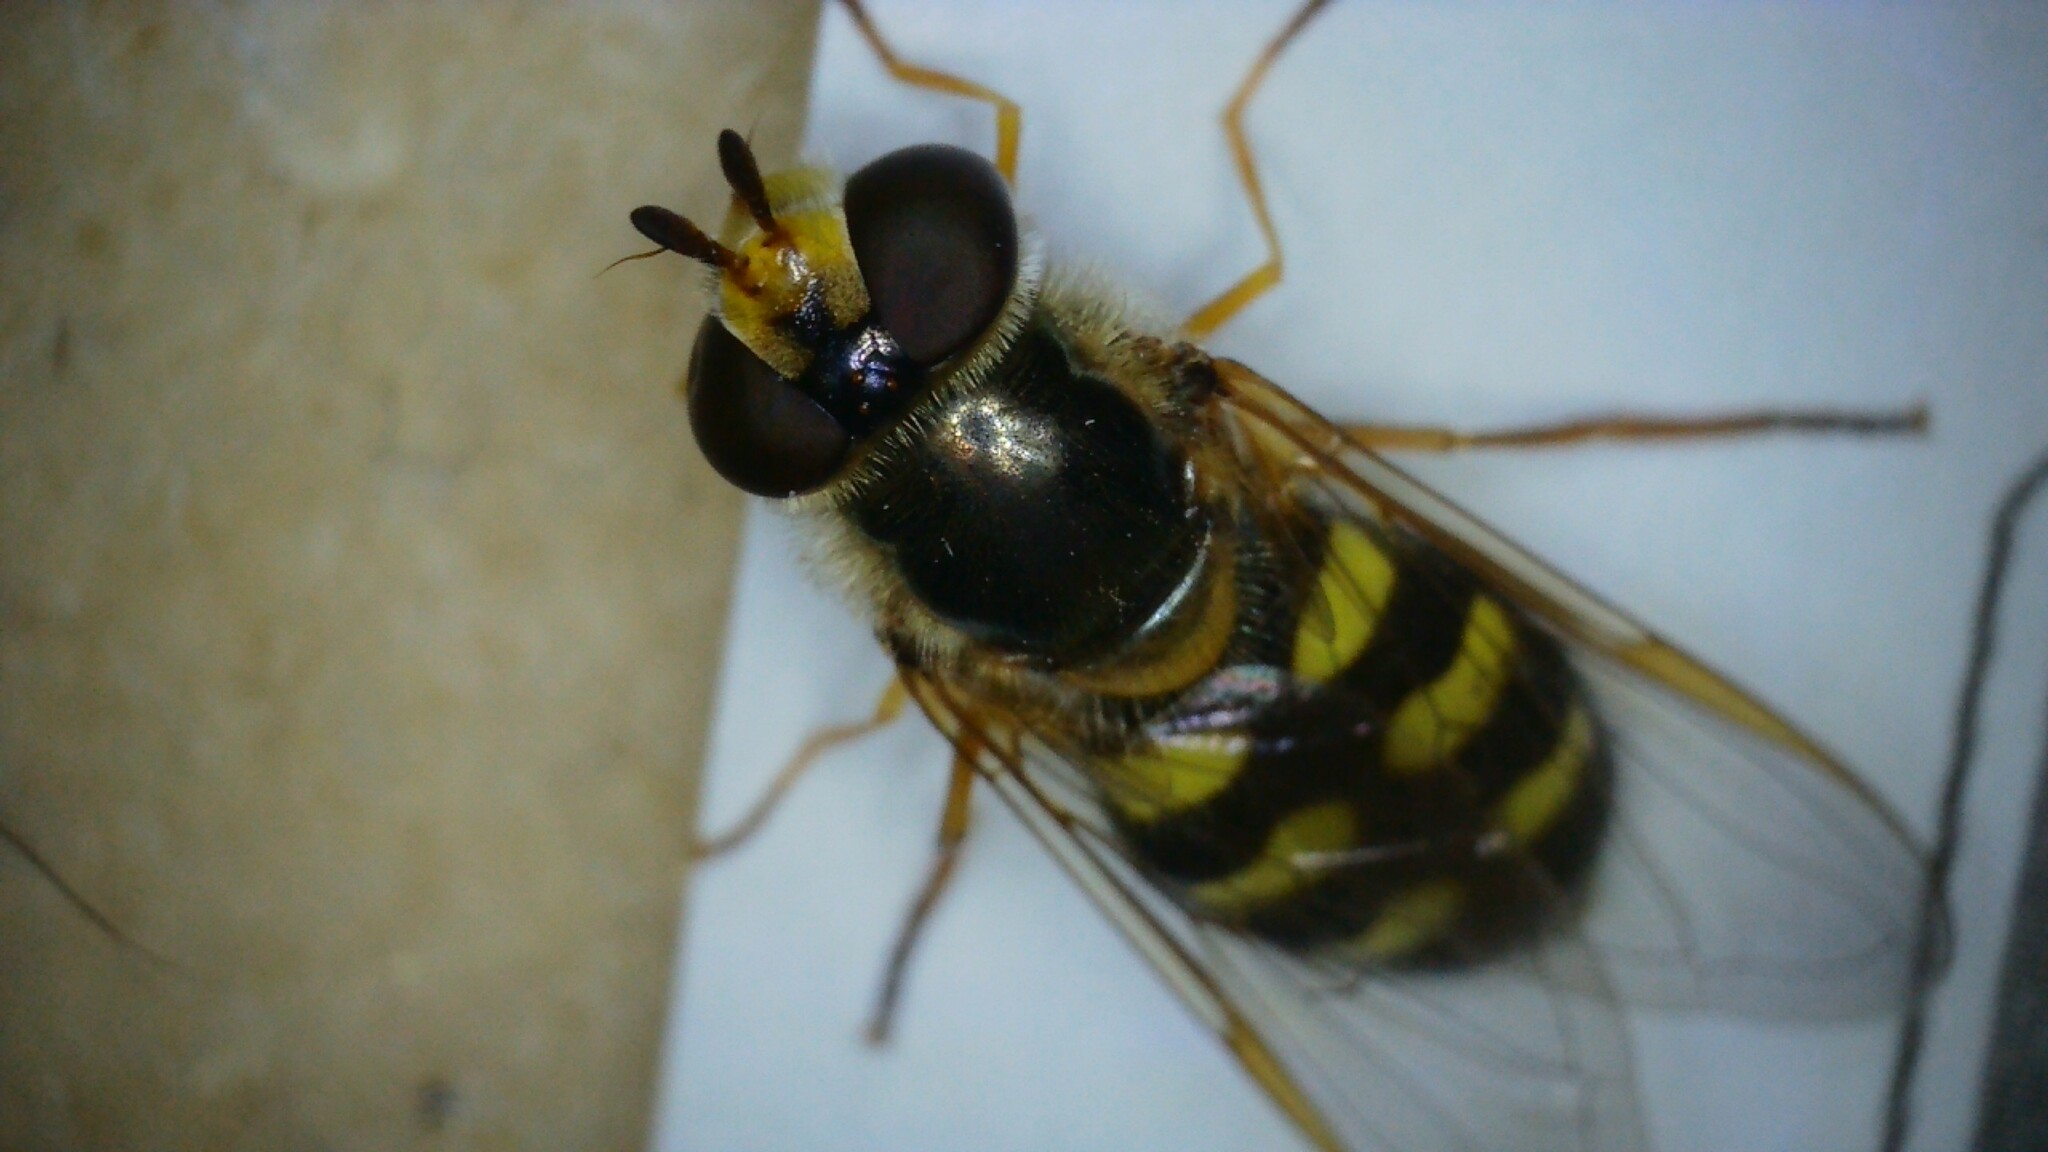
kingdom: Animalia
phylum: Arthropoda
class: Insecta
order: Diptera
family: Syrphidae
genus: Eupeodes
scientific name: Eupeodes luniger
